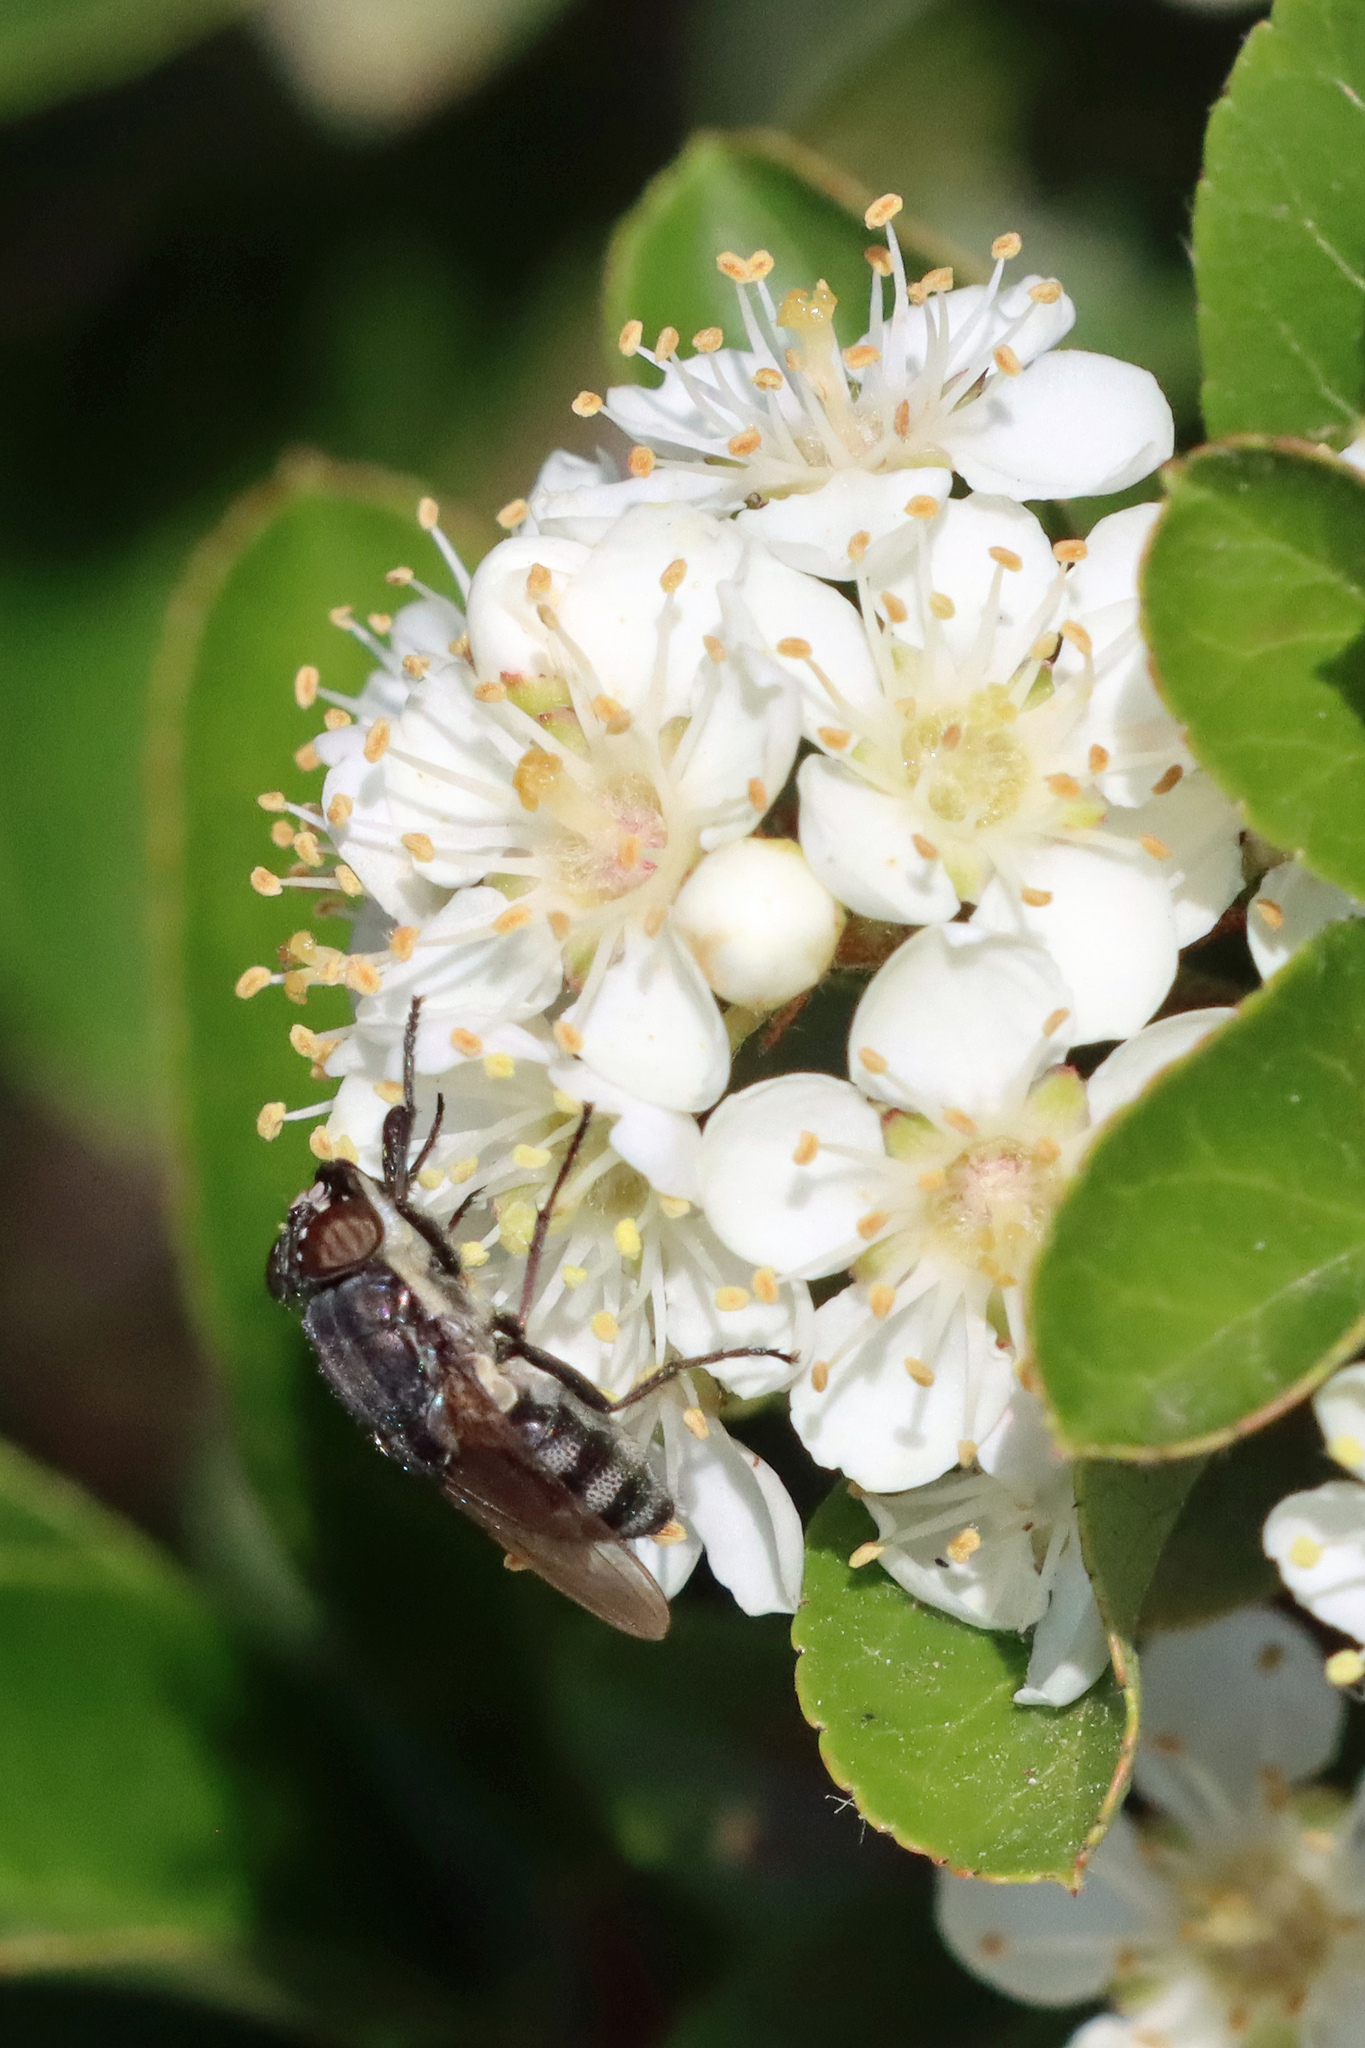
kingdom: Animalia
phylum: Arthropoda
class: Insecta
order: Diptera
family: Calliphoridae
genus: Stomorhina
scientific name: Stomorhina lunata
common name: Locust blowfly
